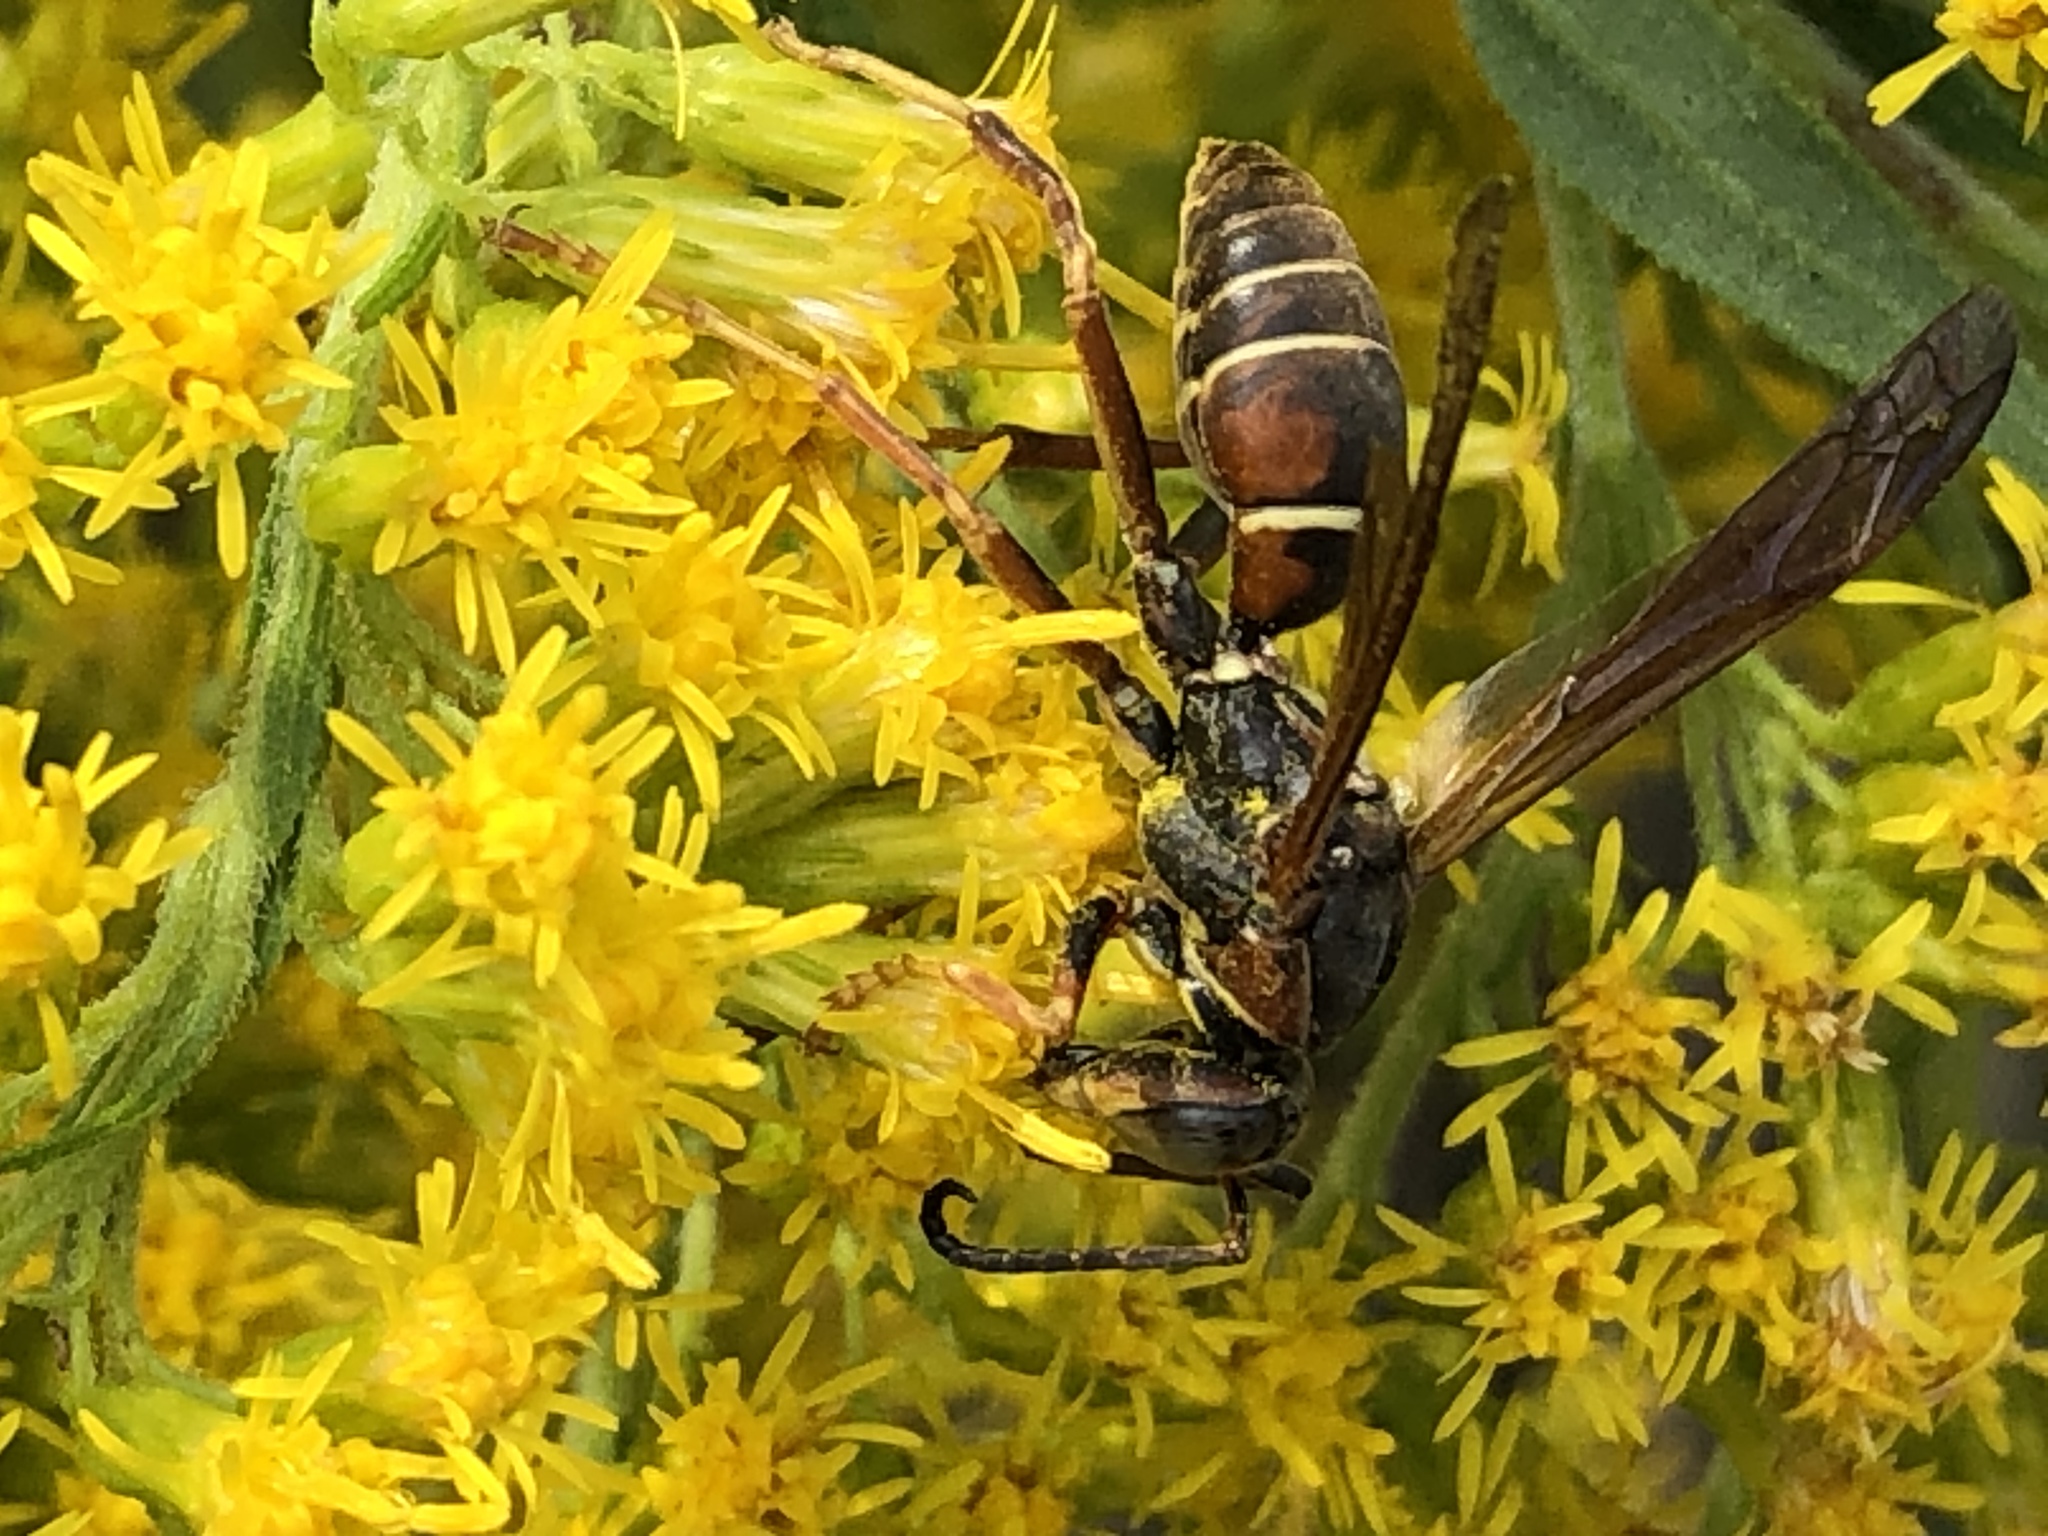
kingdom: Animalia
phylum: Arthropoda
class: Insecta
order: Hymenoptera
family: Eumenidae
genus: Polistes
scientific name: Polistes fuscatus
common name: Dark paper wasp
